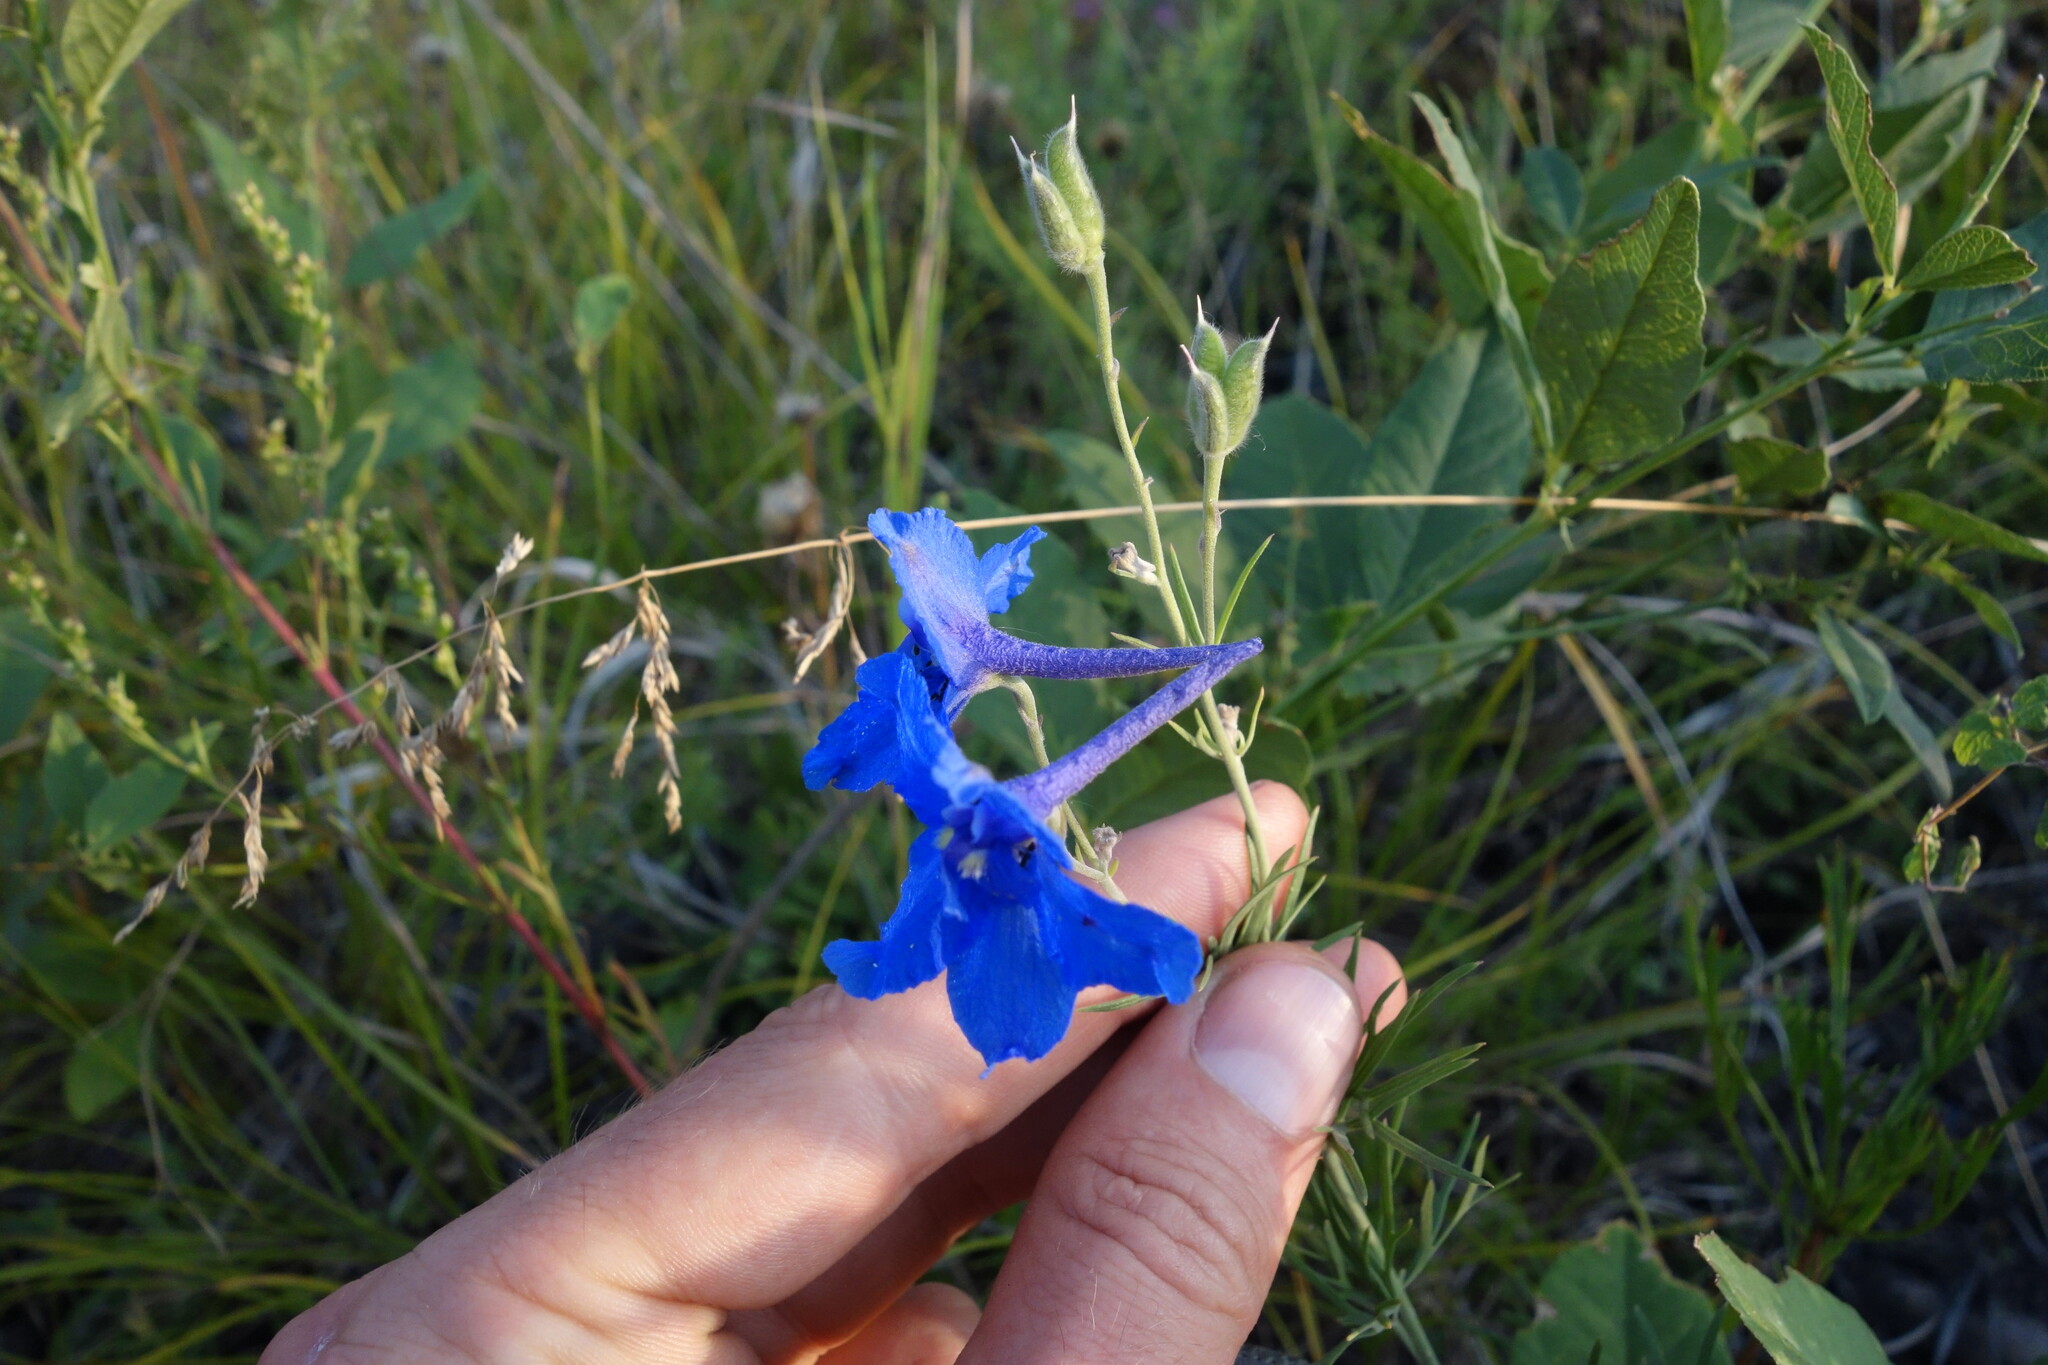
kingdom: Plantae
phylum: Tracheophyta
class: Magnoliopsida
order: Ranunculales
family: Ranunculaceae
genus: Delphinium
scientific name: Delphinium grandiflorum
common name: Siberian larkspur
